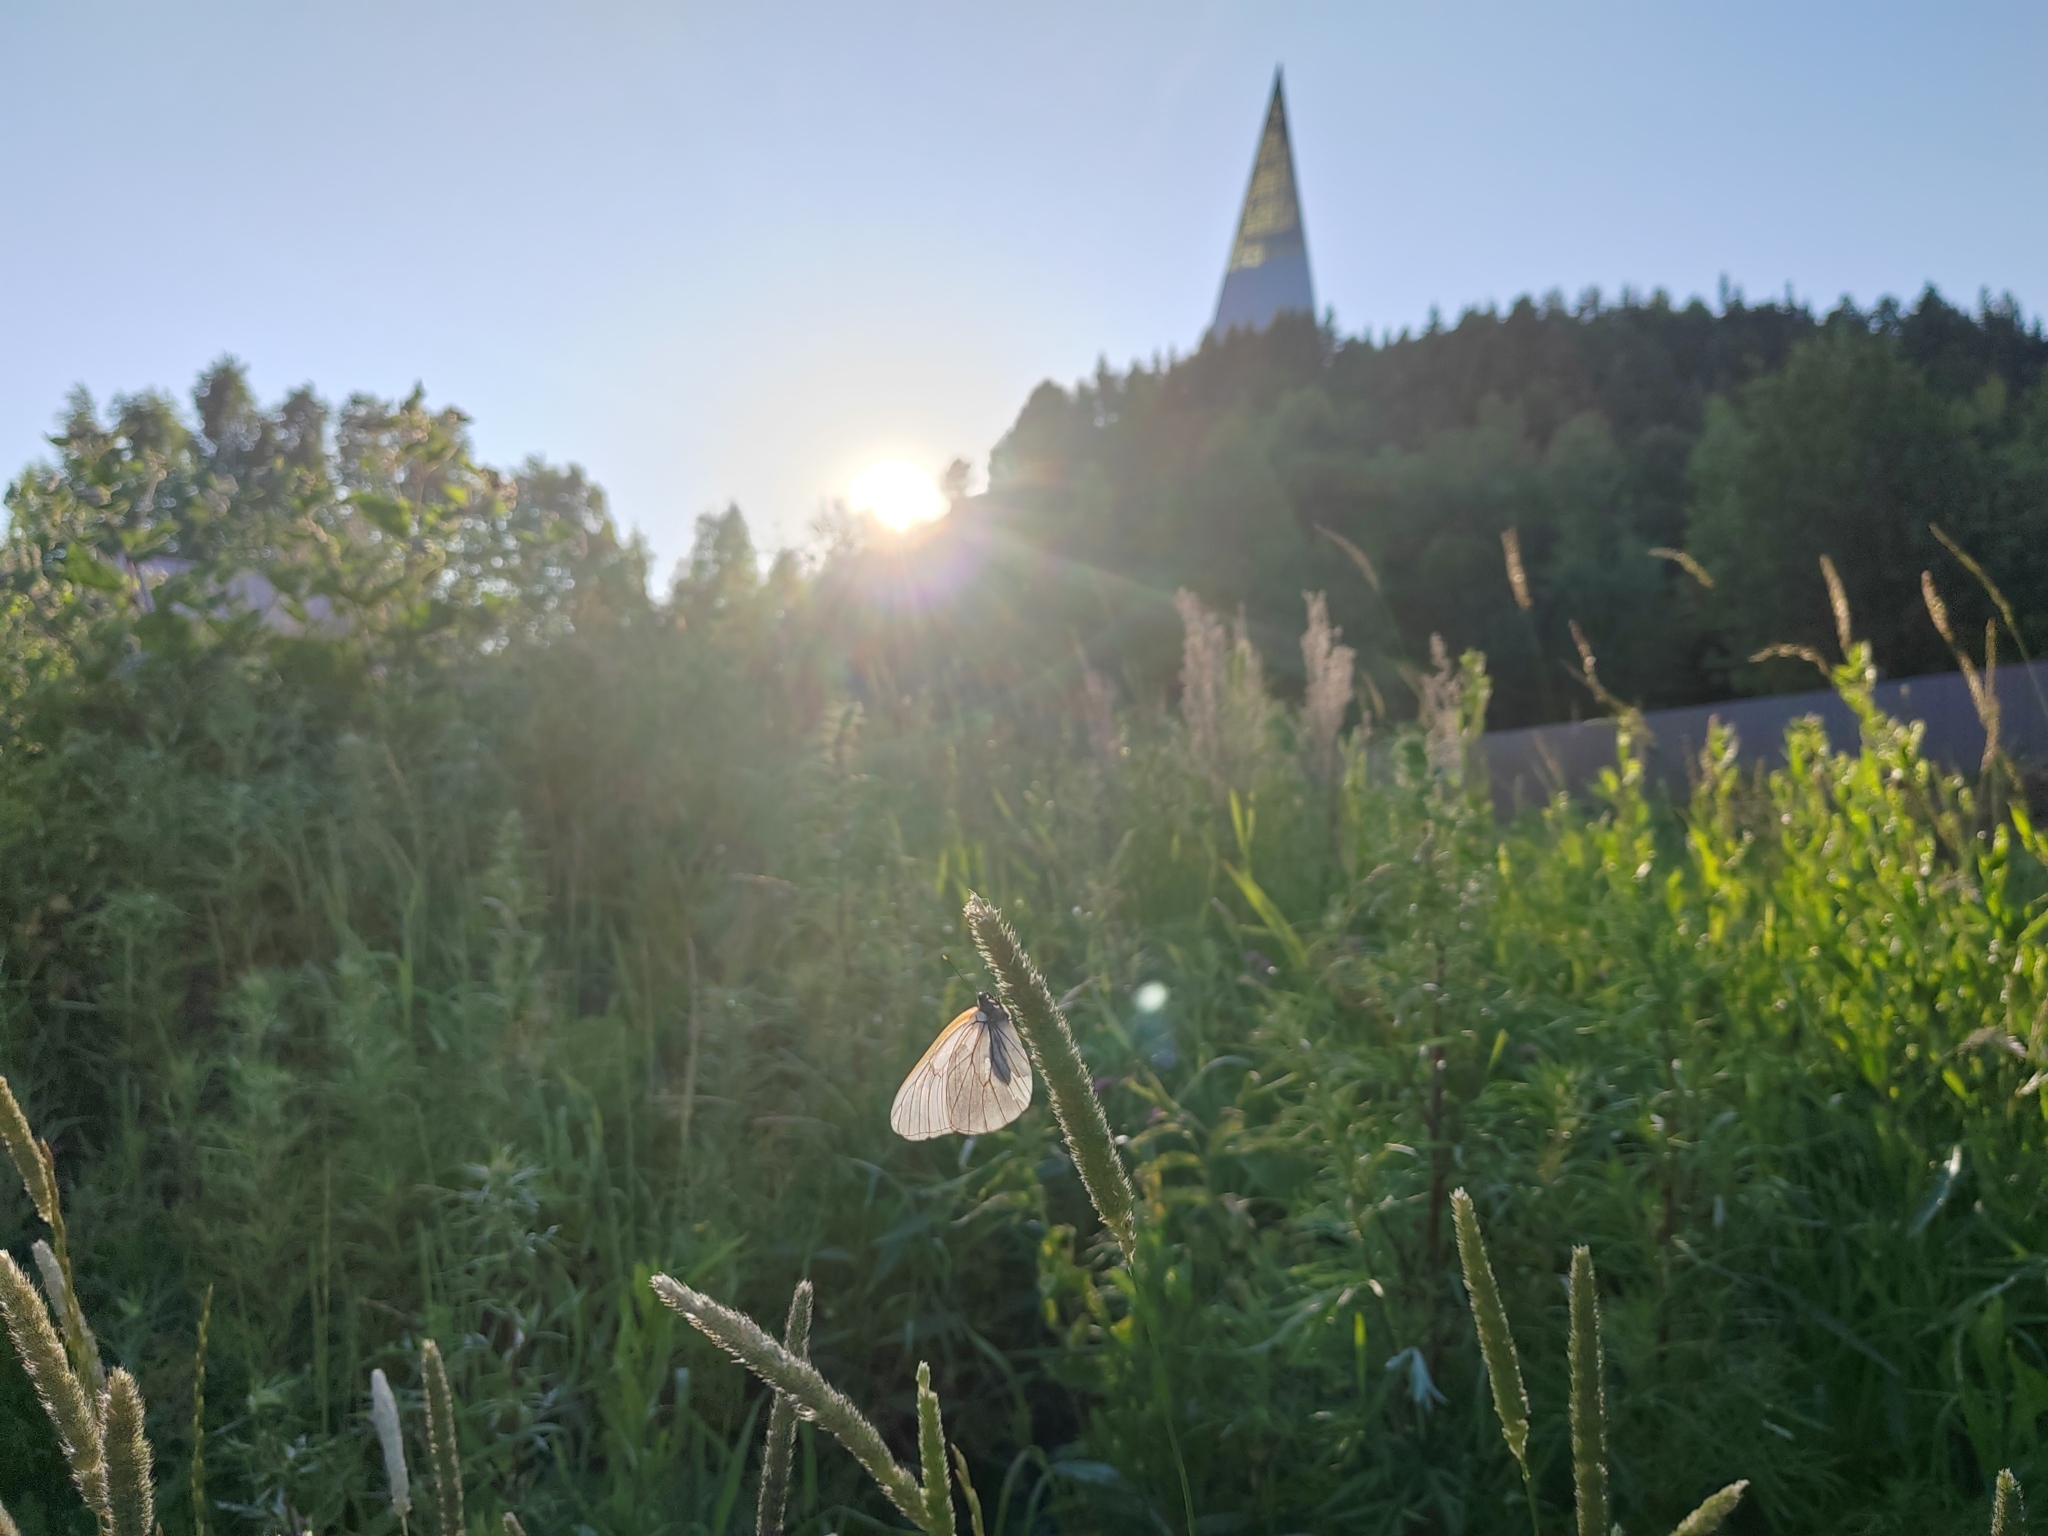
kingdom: Animalia
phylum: Arthropoda
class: Insecta
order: Lepidoptera
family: Pieridae
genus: Aporia
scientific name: Aporia crataegi
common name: Black-veined white
